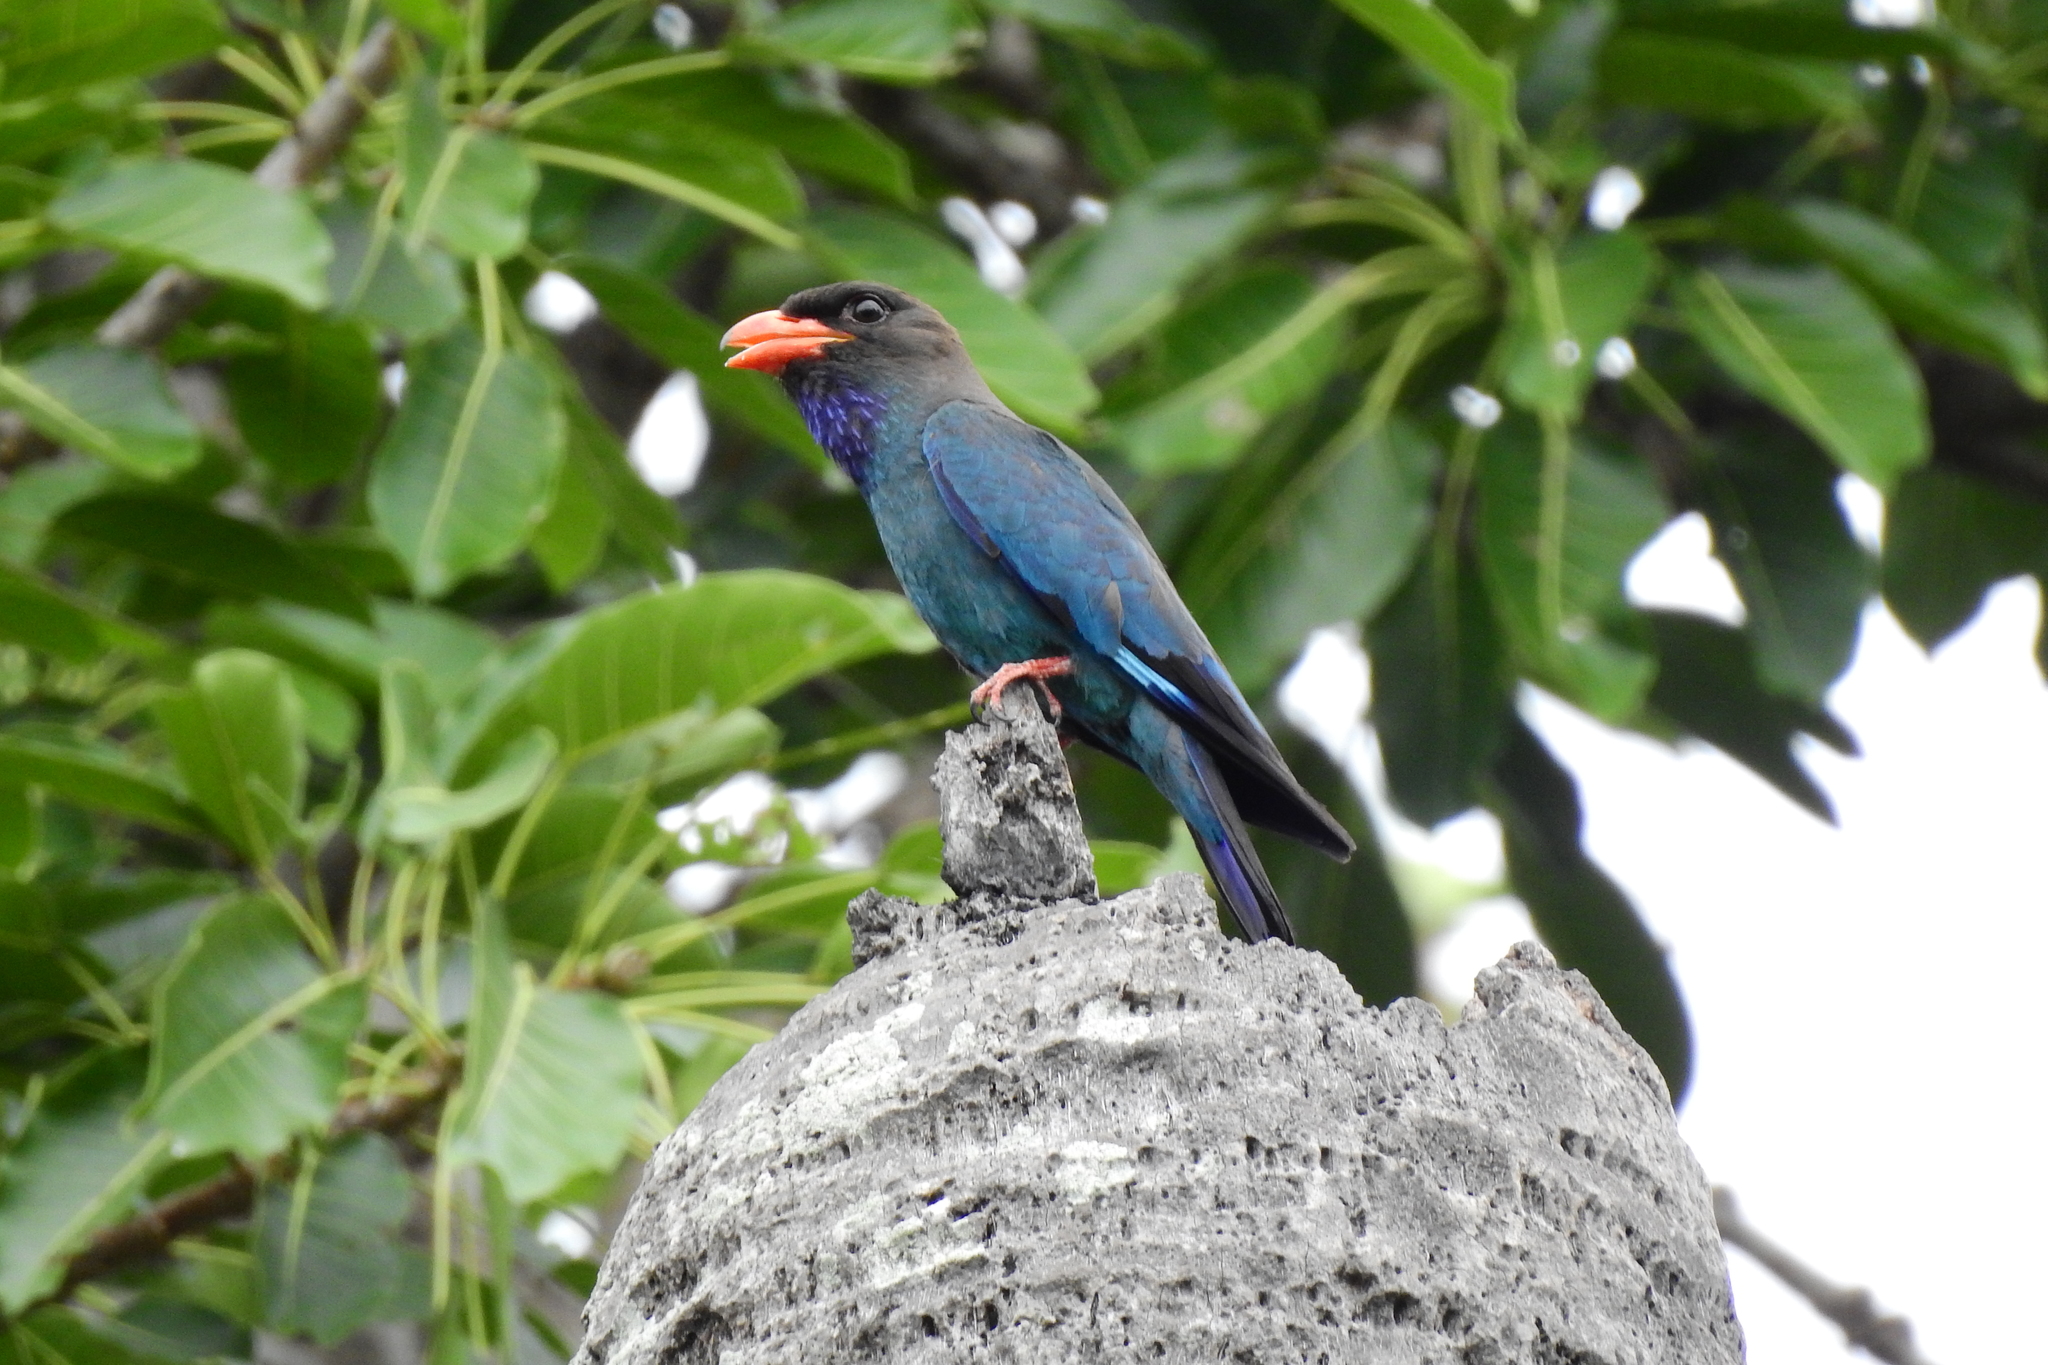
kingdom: Animalia
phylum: Chordata
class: Aves
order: Coraciiformes
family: Coraciidae
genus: Eurystomus
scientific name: Eurystomus orientalis
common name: Oriental dollarbird
